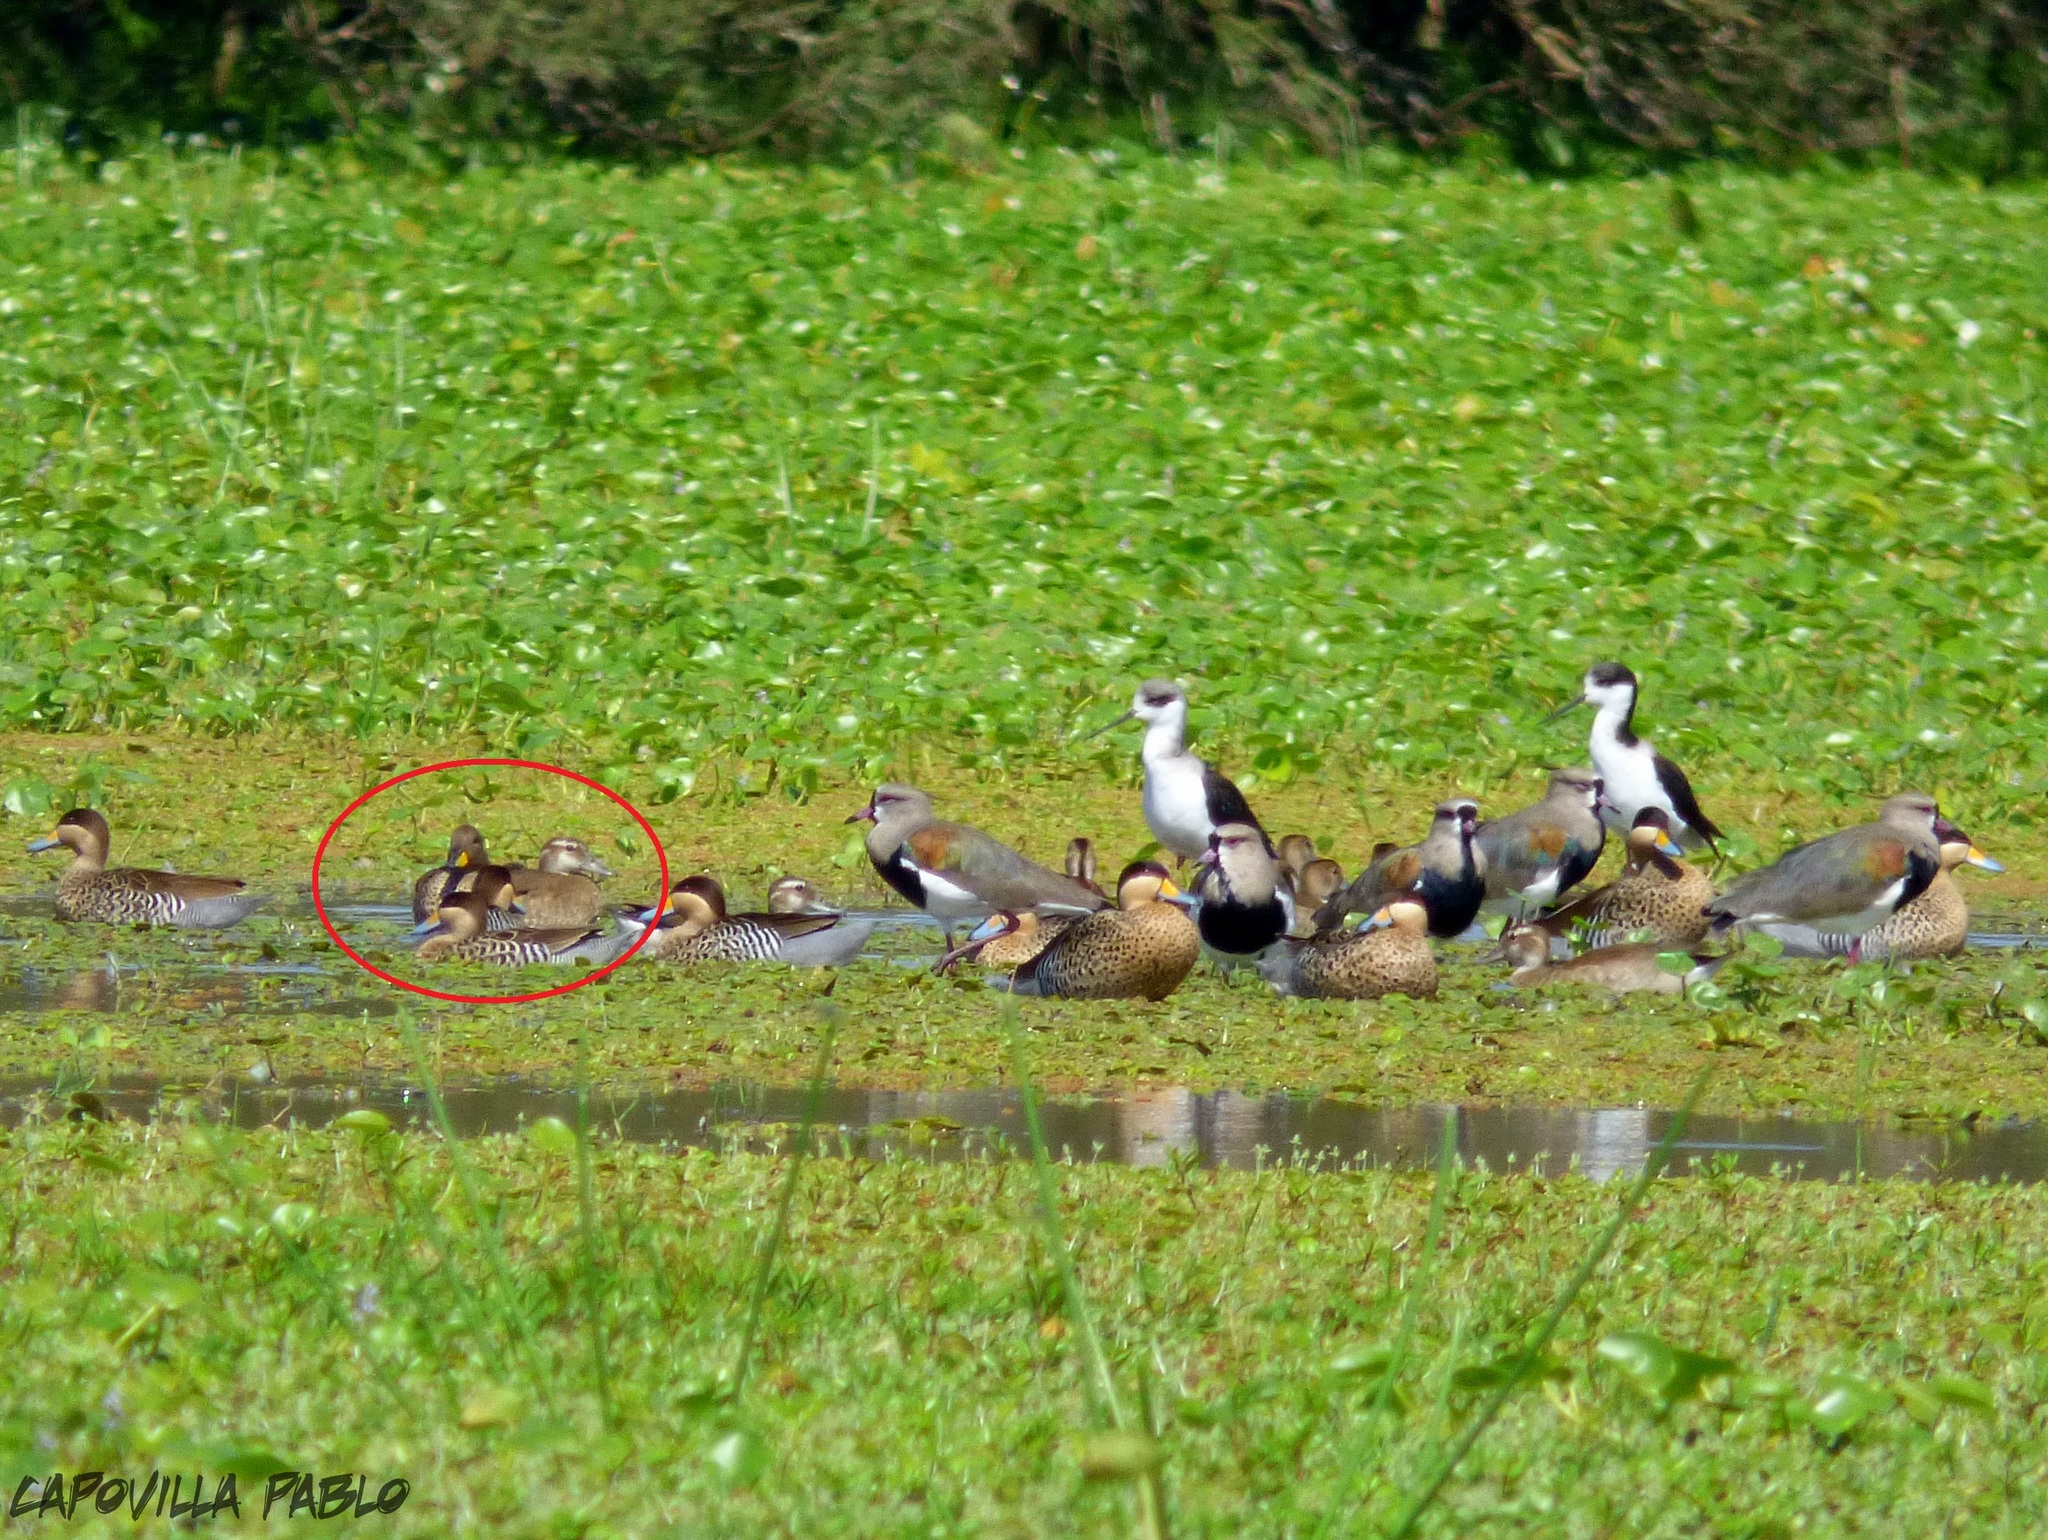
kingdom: Animalia
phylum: Chordata
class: Aves
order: Anseriformes
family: Anatidae
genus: Anas
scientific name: Anas flavirostris
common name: Yellow-billed teal
